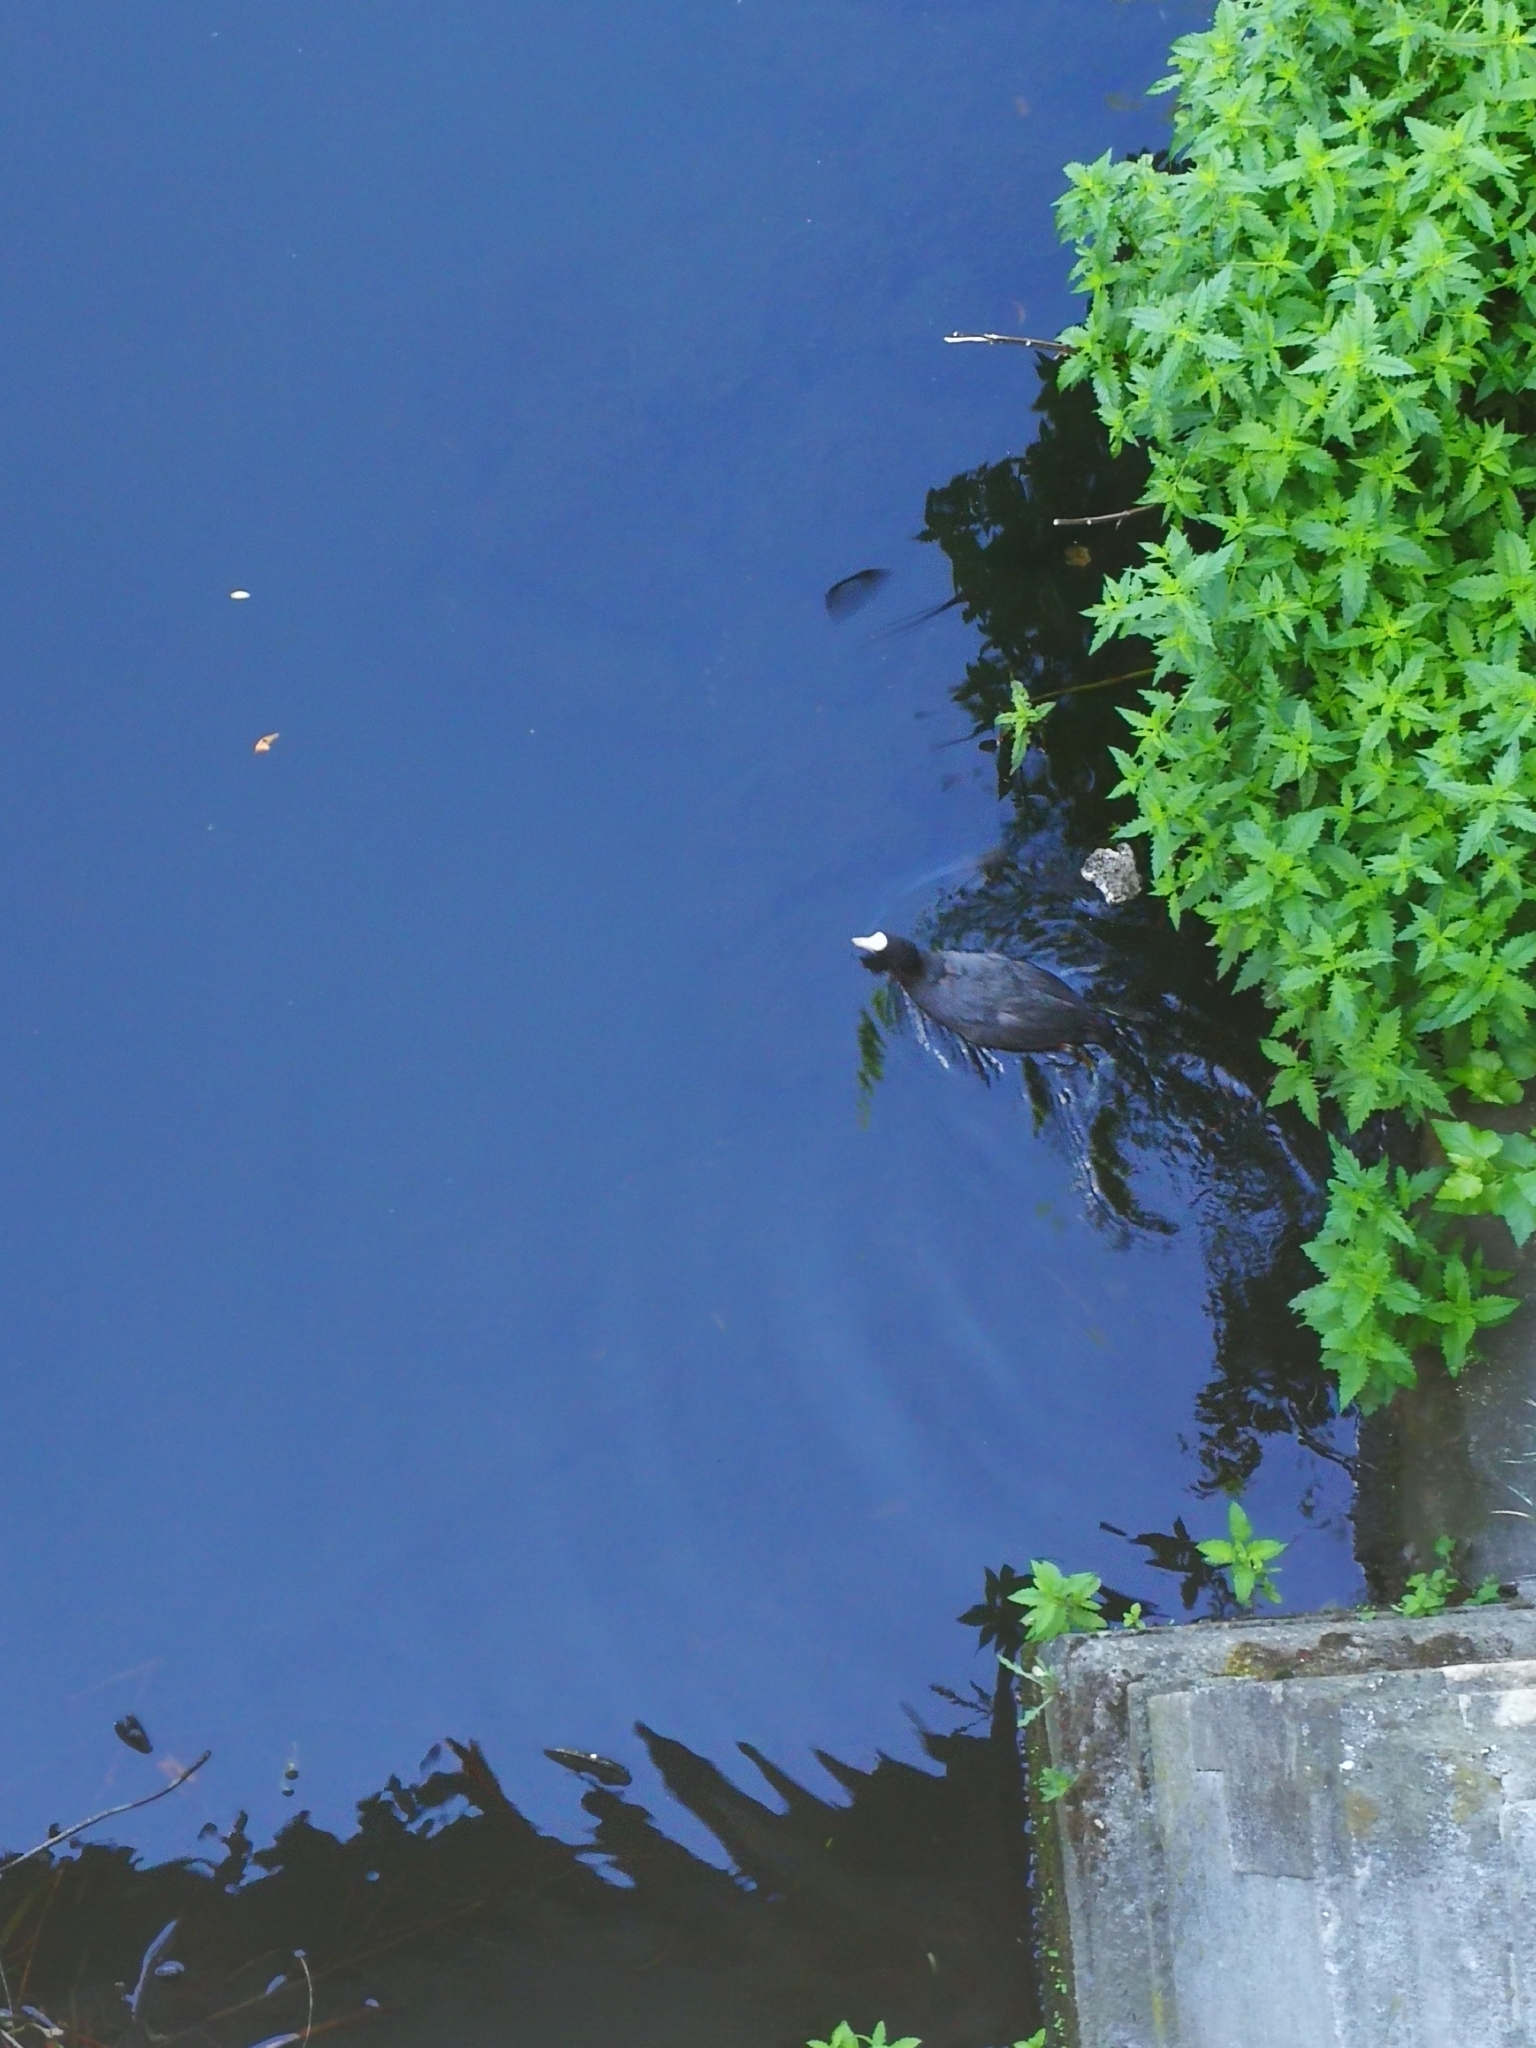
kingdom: Animalia
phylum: Chordata
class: Aves
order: Gruiformes
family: Rallidae
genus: Fulica
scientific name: Fulica atra
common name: Eurasian coot
